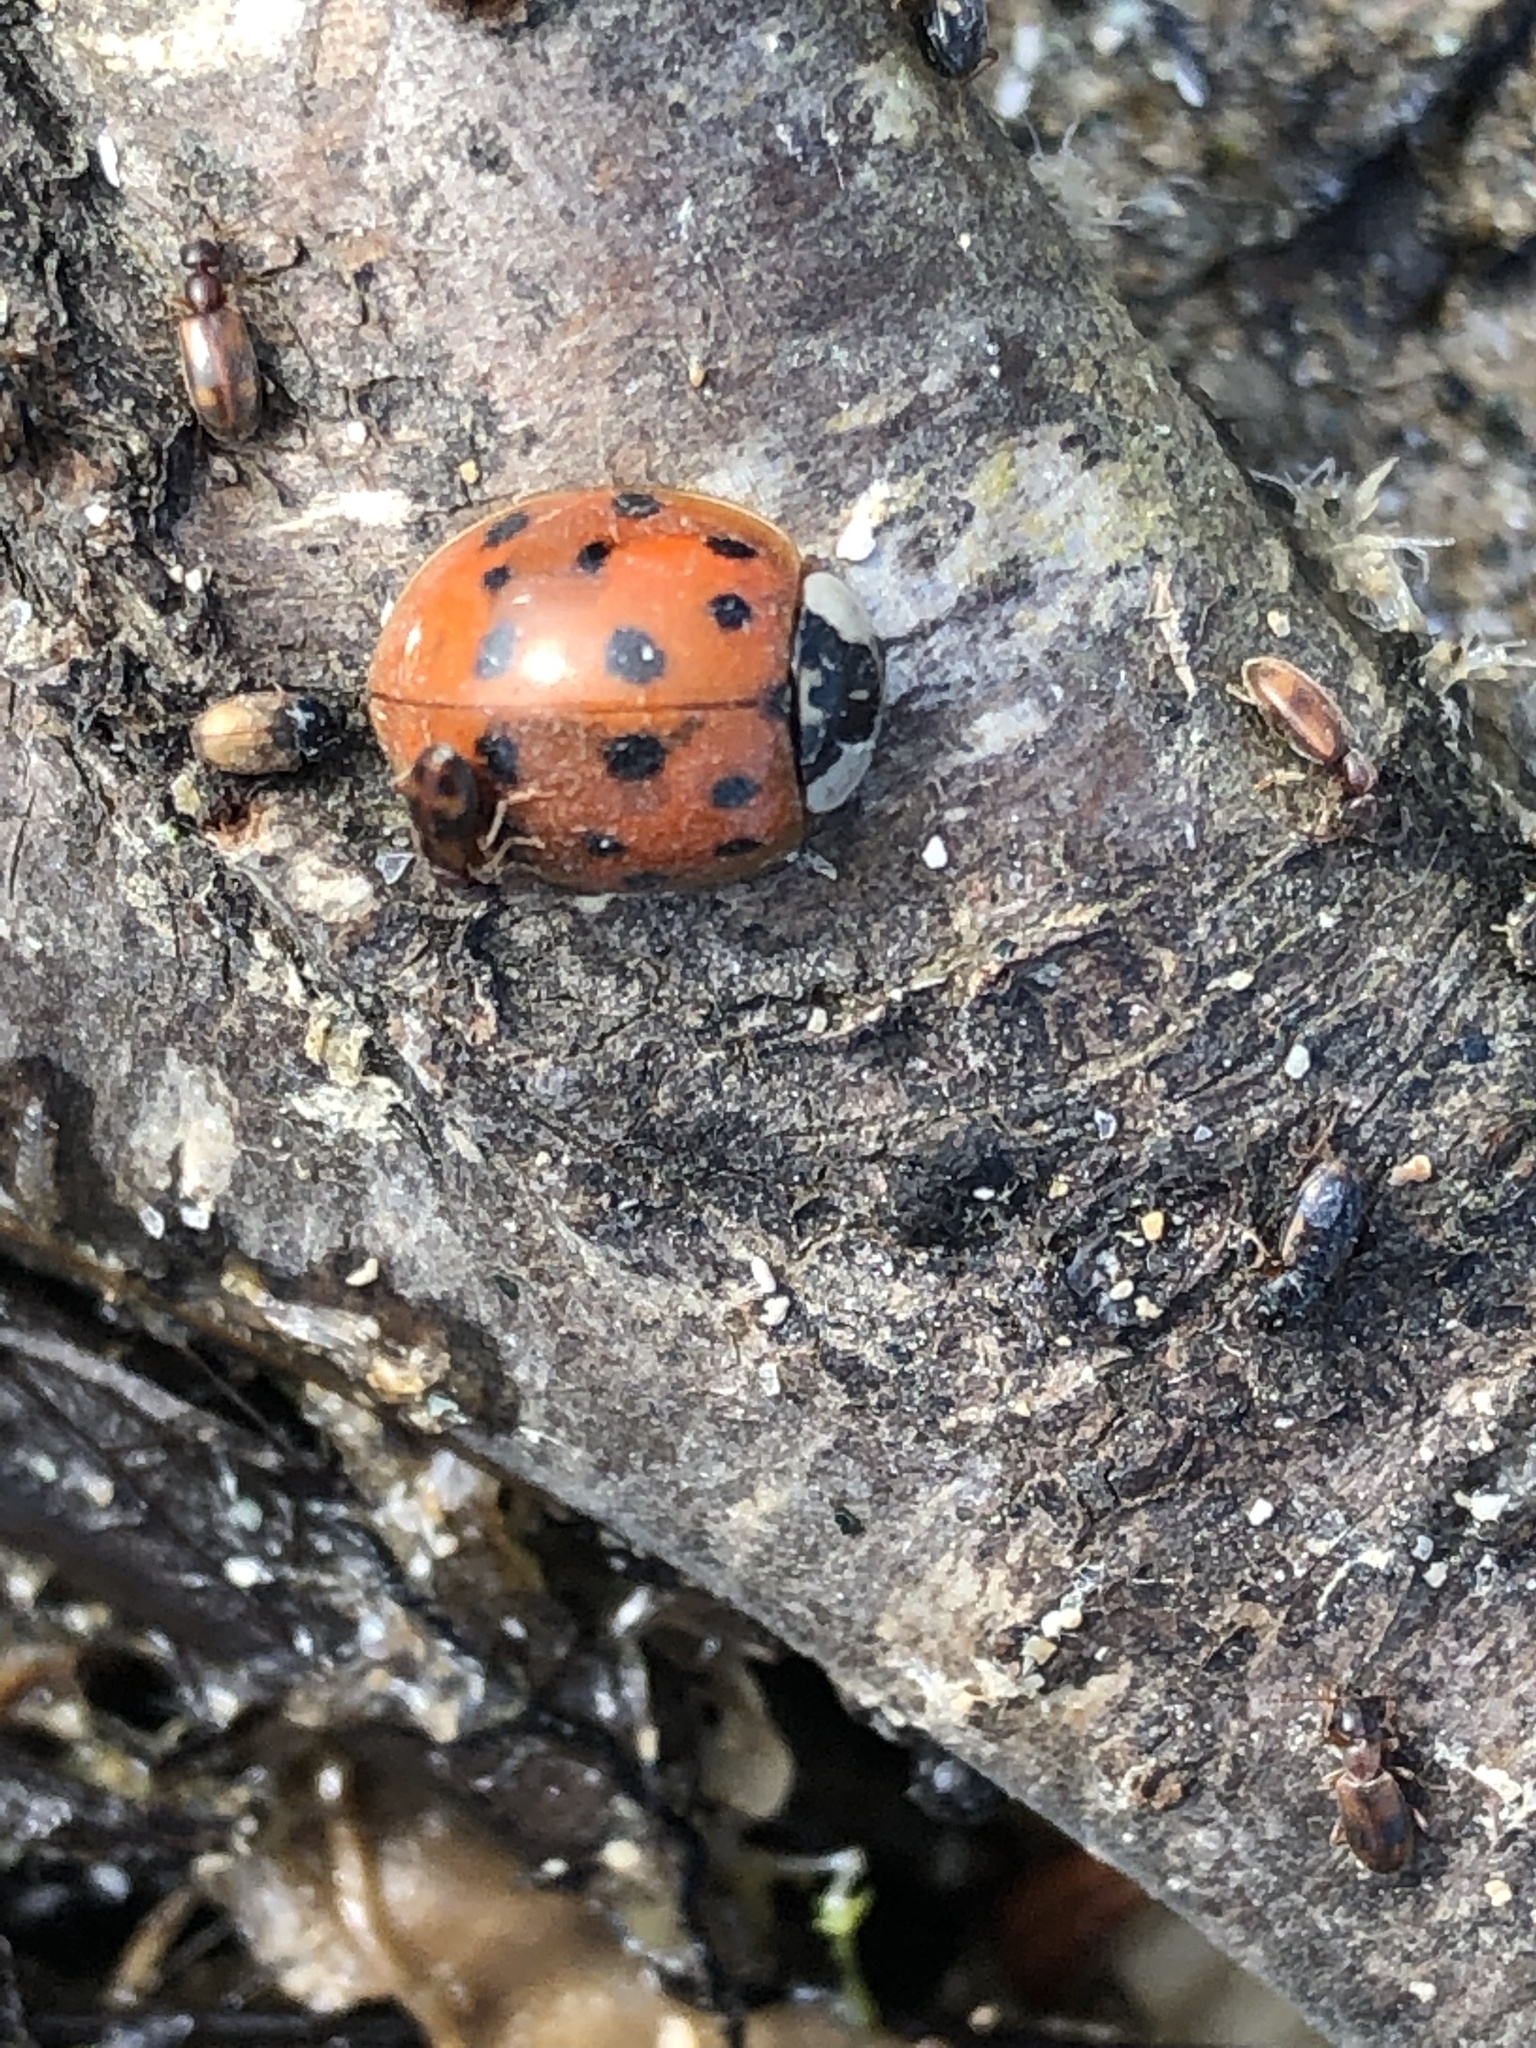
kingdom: Animalia
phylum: Arthropoda
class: Insecta
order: Coleoptera
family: Coccinellidae
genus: Harmonia
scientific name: Harmonia axyridis
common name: Harlequin ladybird
